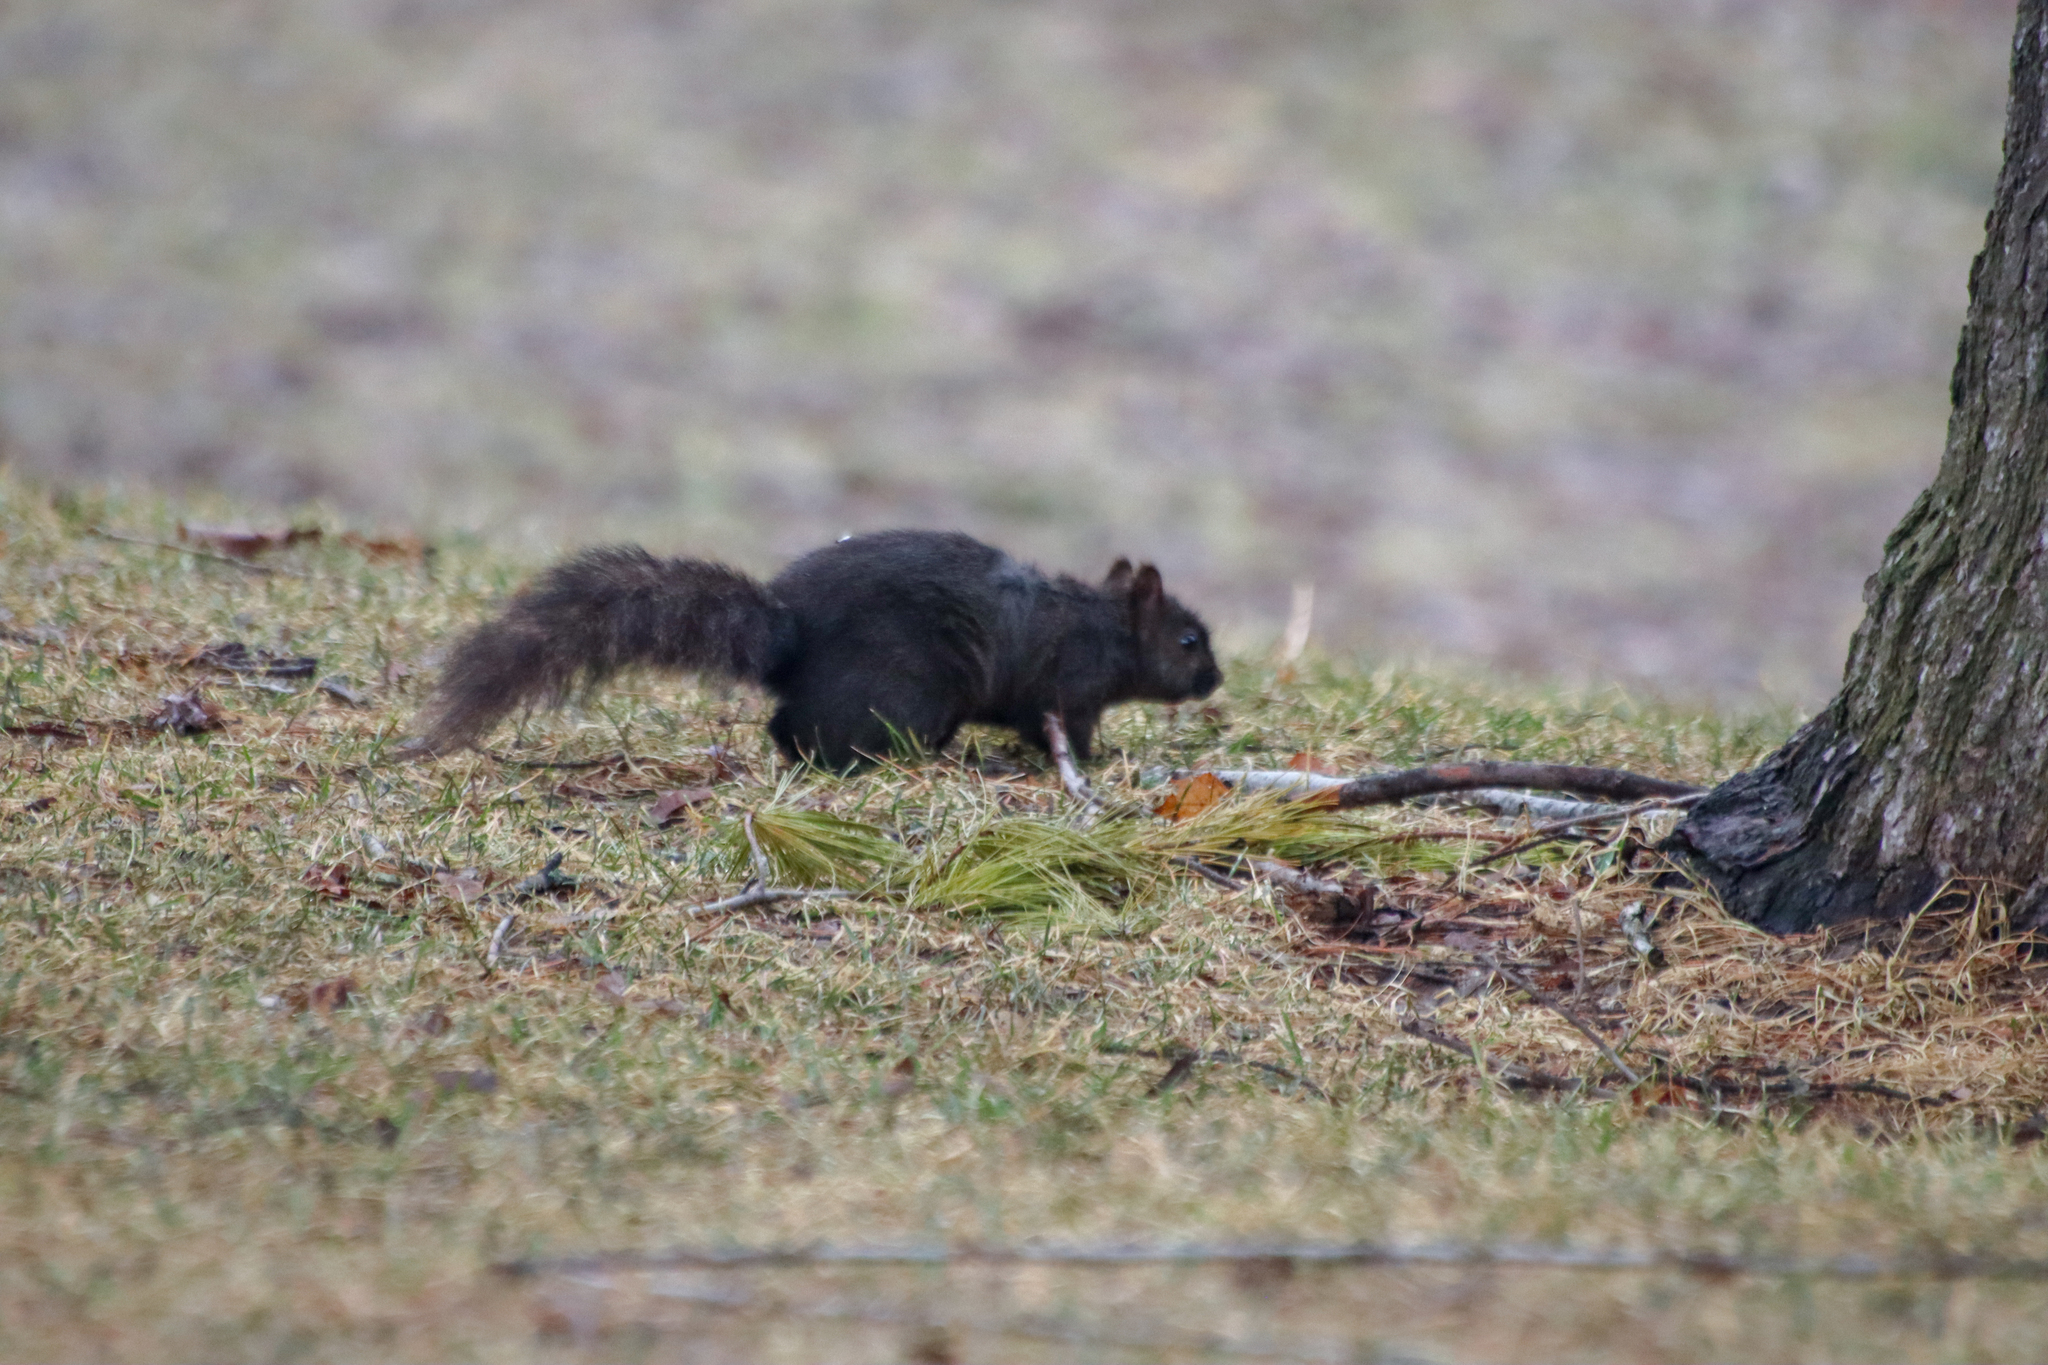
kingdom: Animalia
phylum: Chordata
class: Mammalia
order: Rodentia
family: Sciuridae
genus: Sciurus
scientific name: Sciurus carolinensis
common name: Eastern gray squirrel
